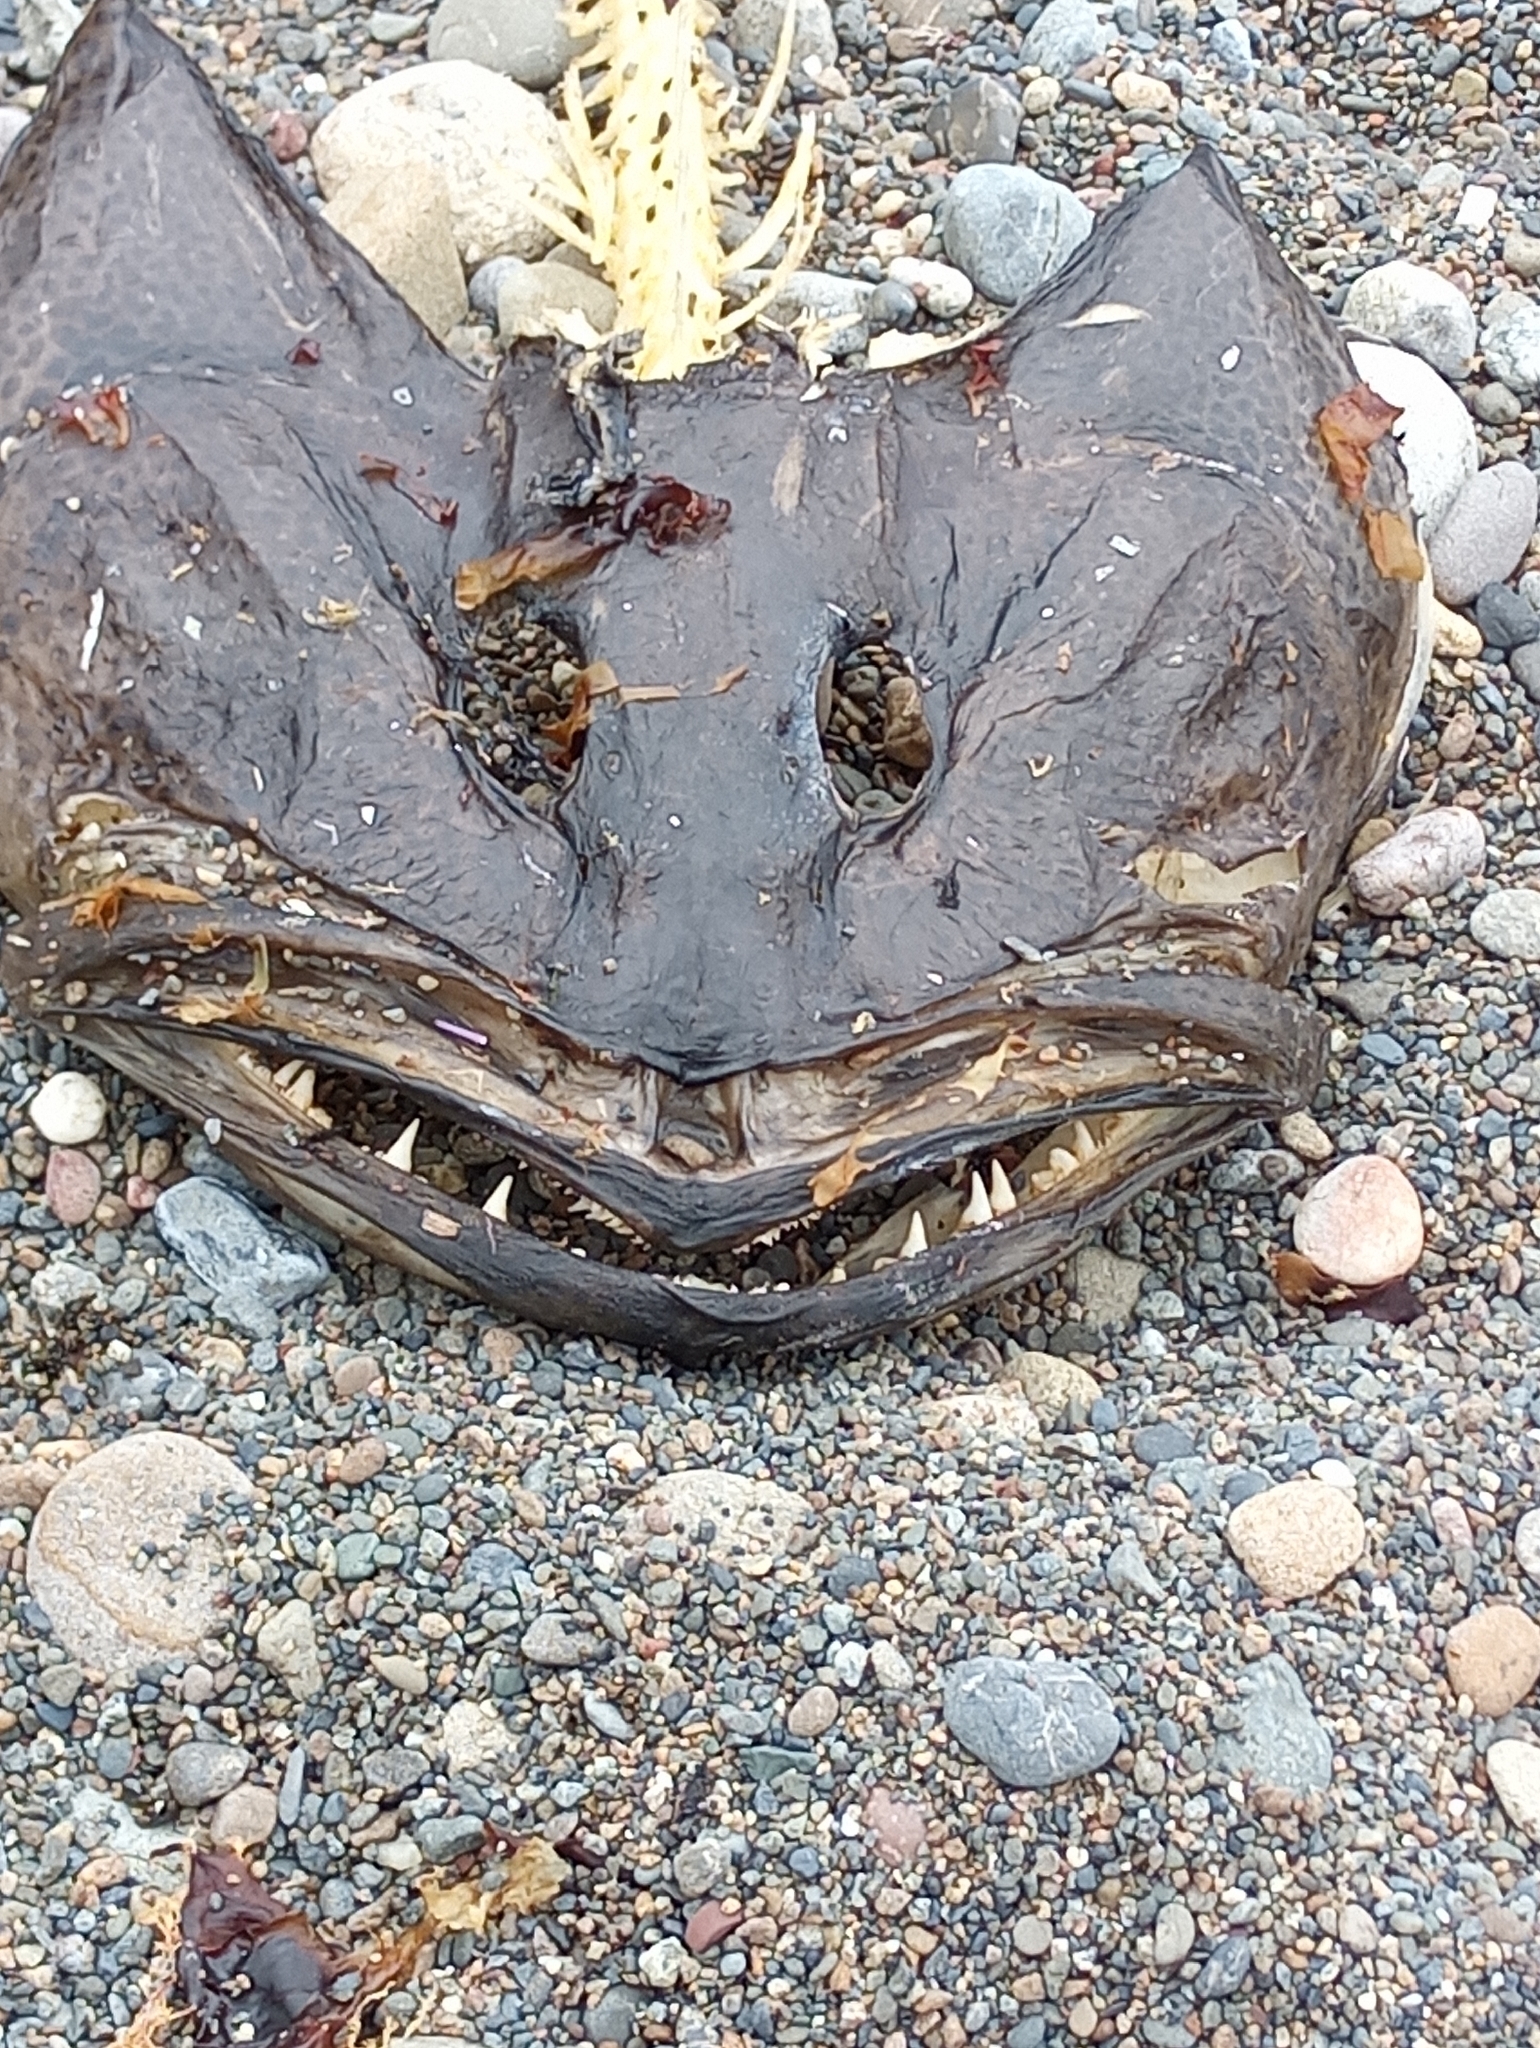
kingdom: Animalia
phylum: Chordata
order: Scorpaeniformes
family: Hexagrammidae
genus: Ophiodon
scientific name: Ophiodon elongatus
